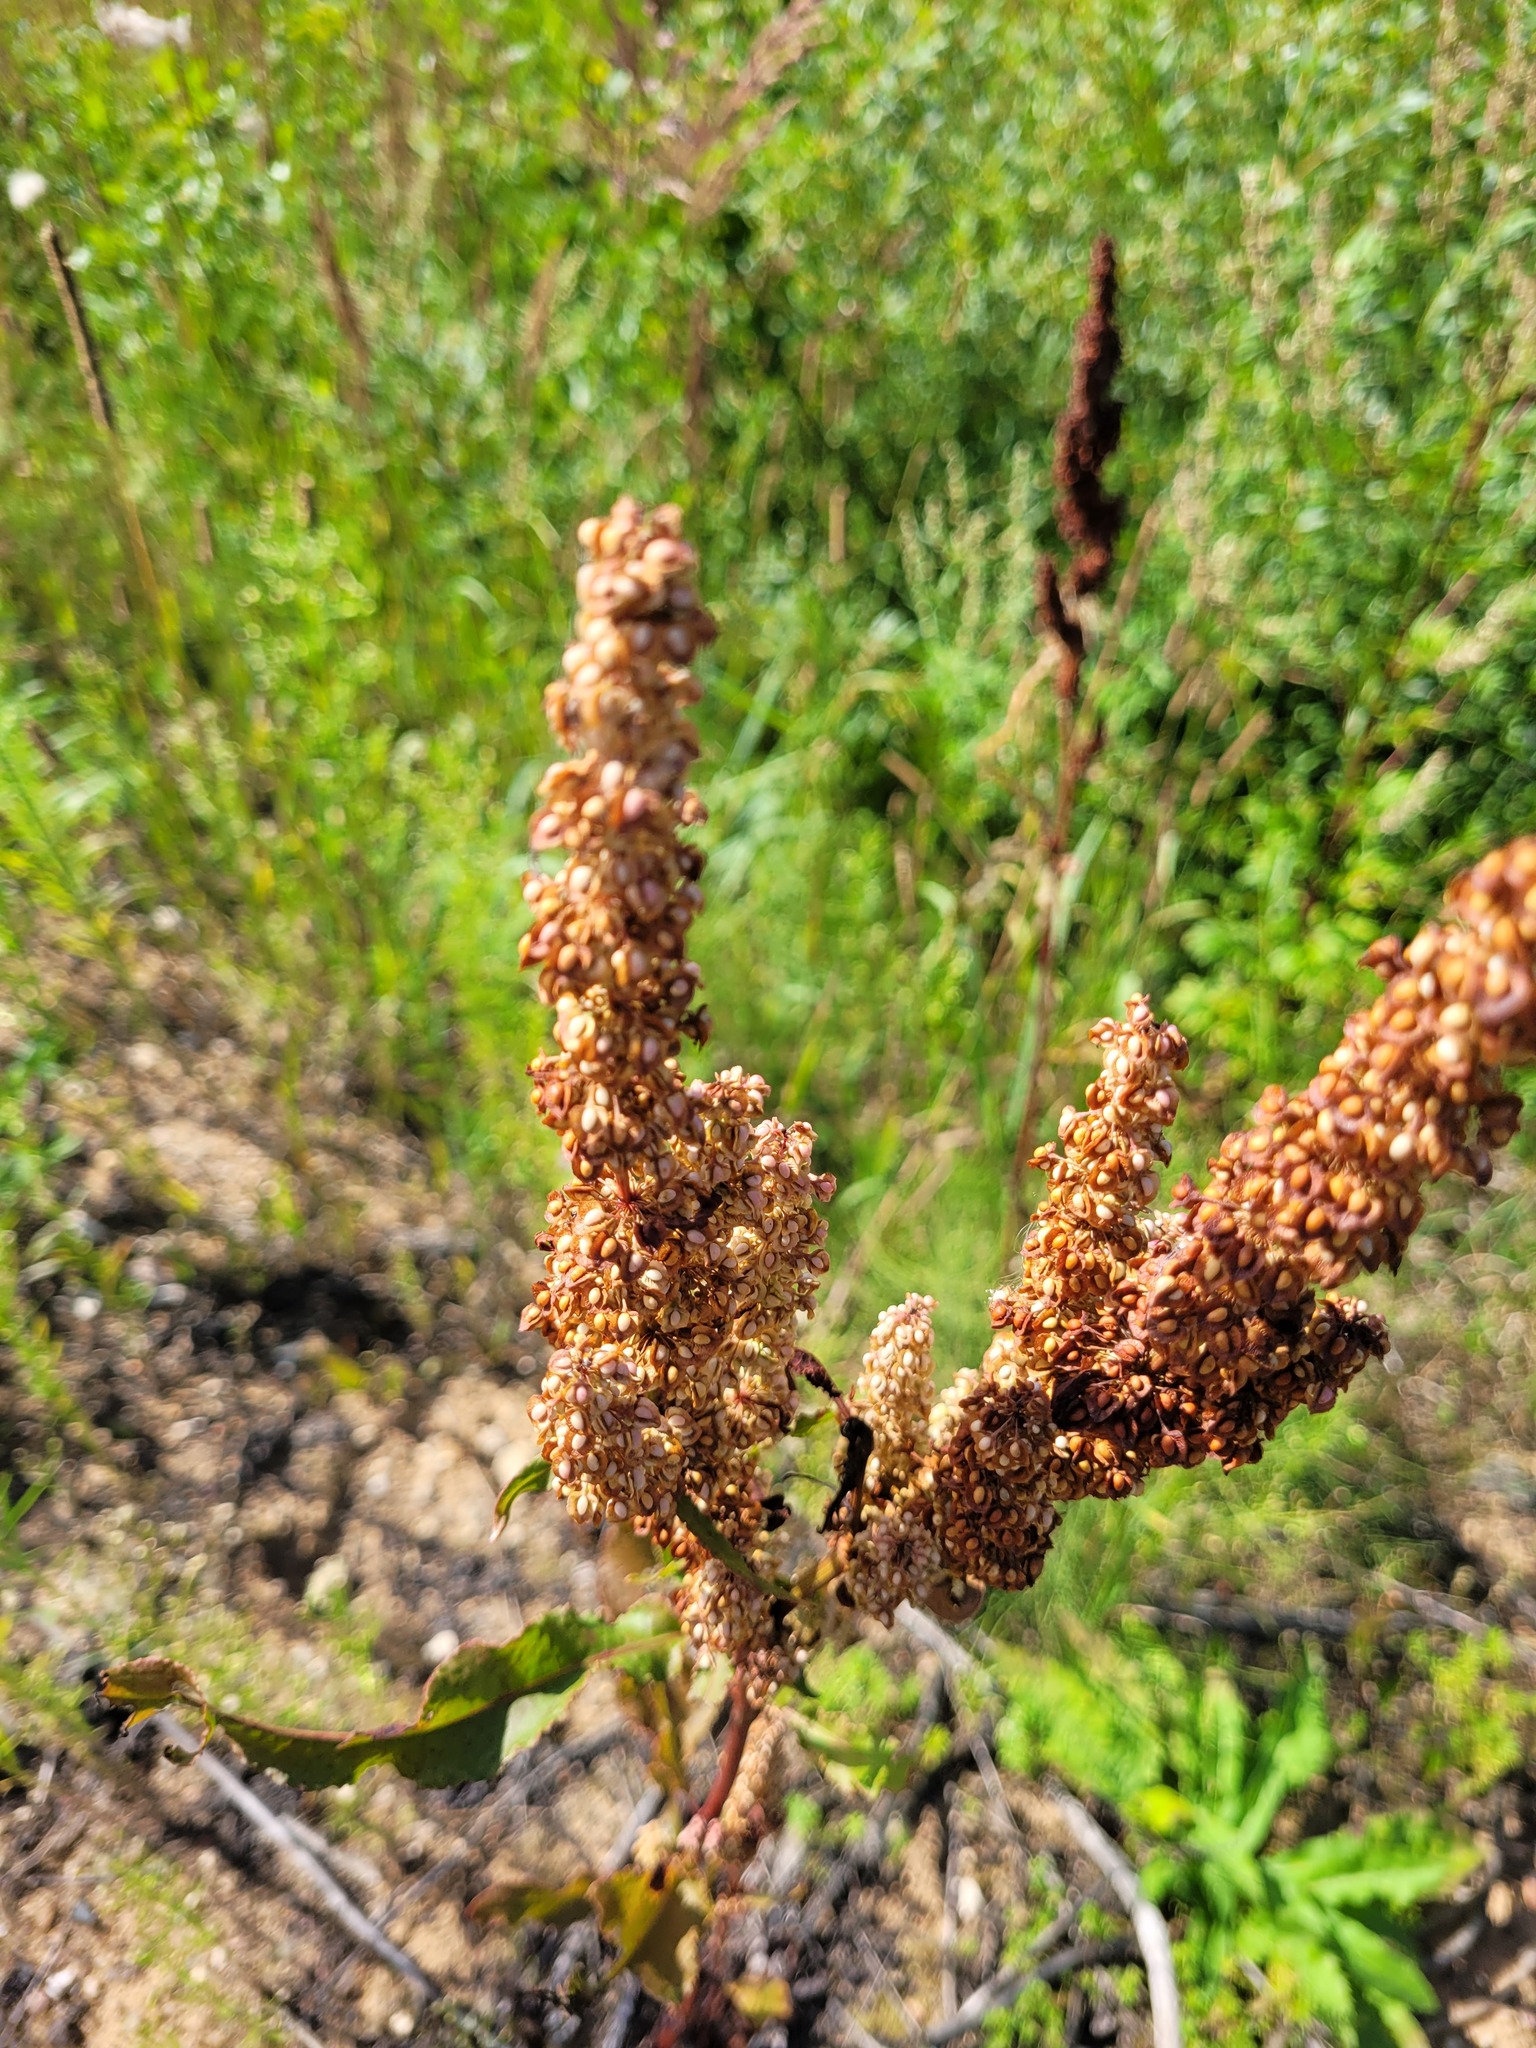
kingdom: Plantae
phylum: Tracheophyta
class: Magnoliopsida
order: Caryophyllales
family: Polygonaceae
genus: Rumex
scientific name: Rumex crispus
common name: Curled dock
